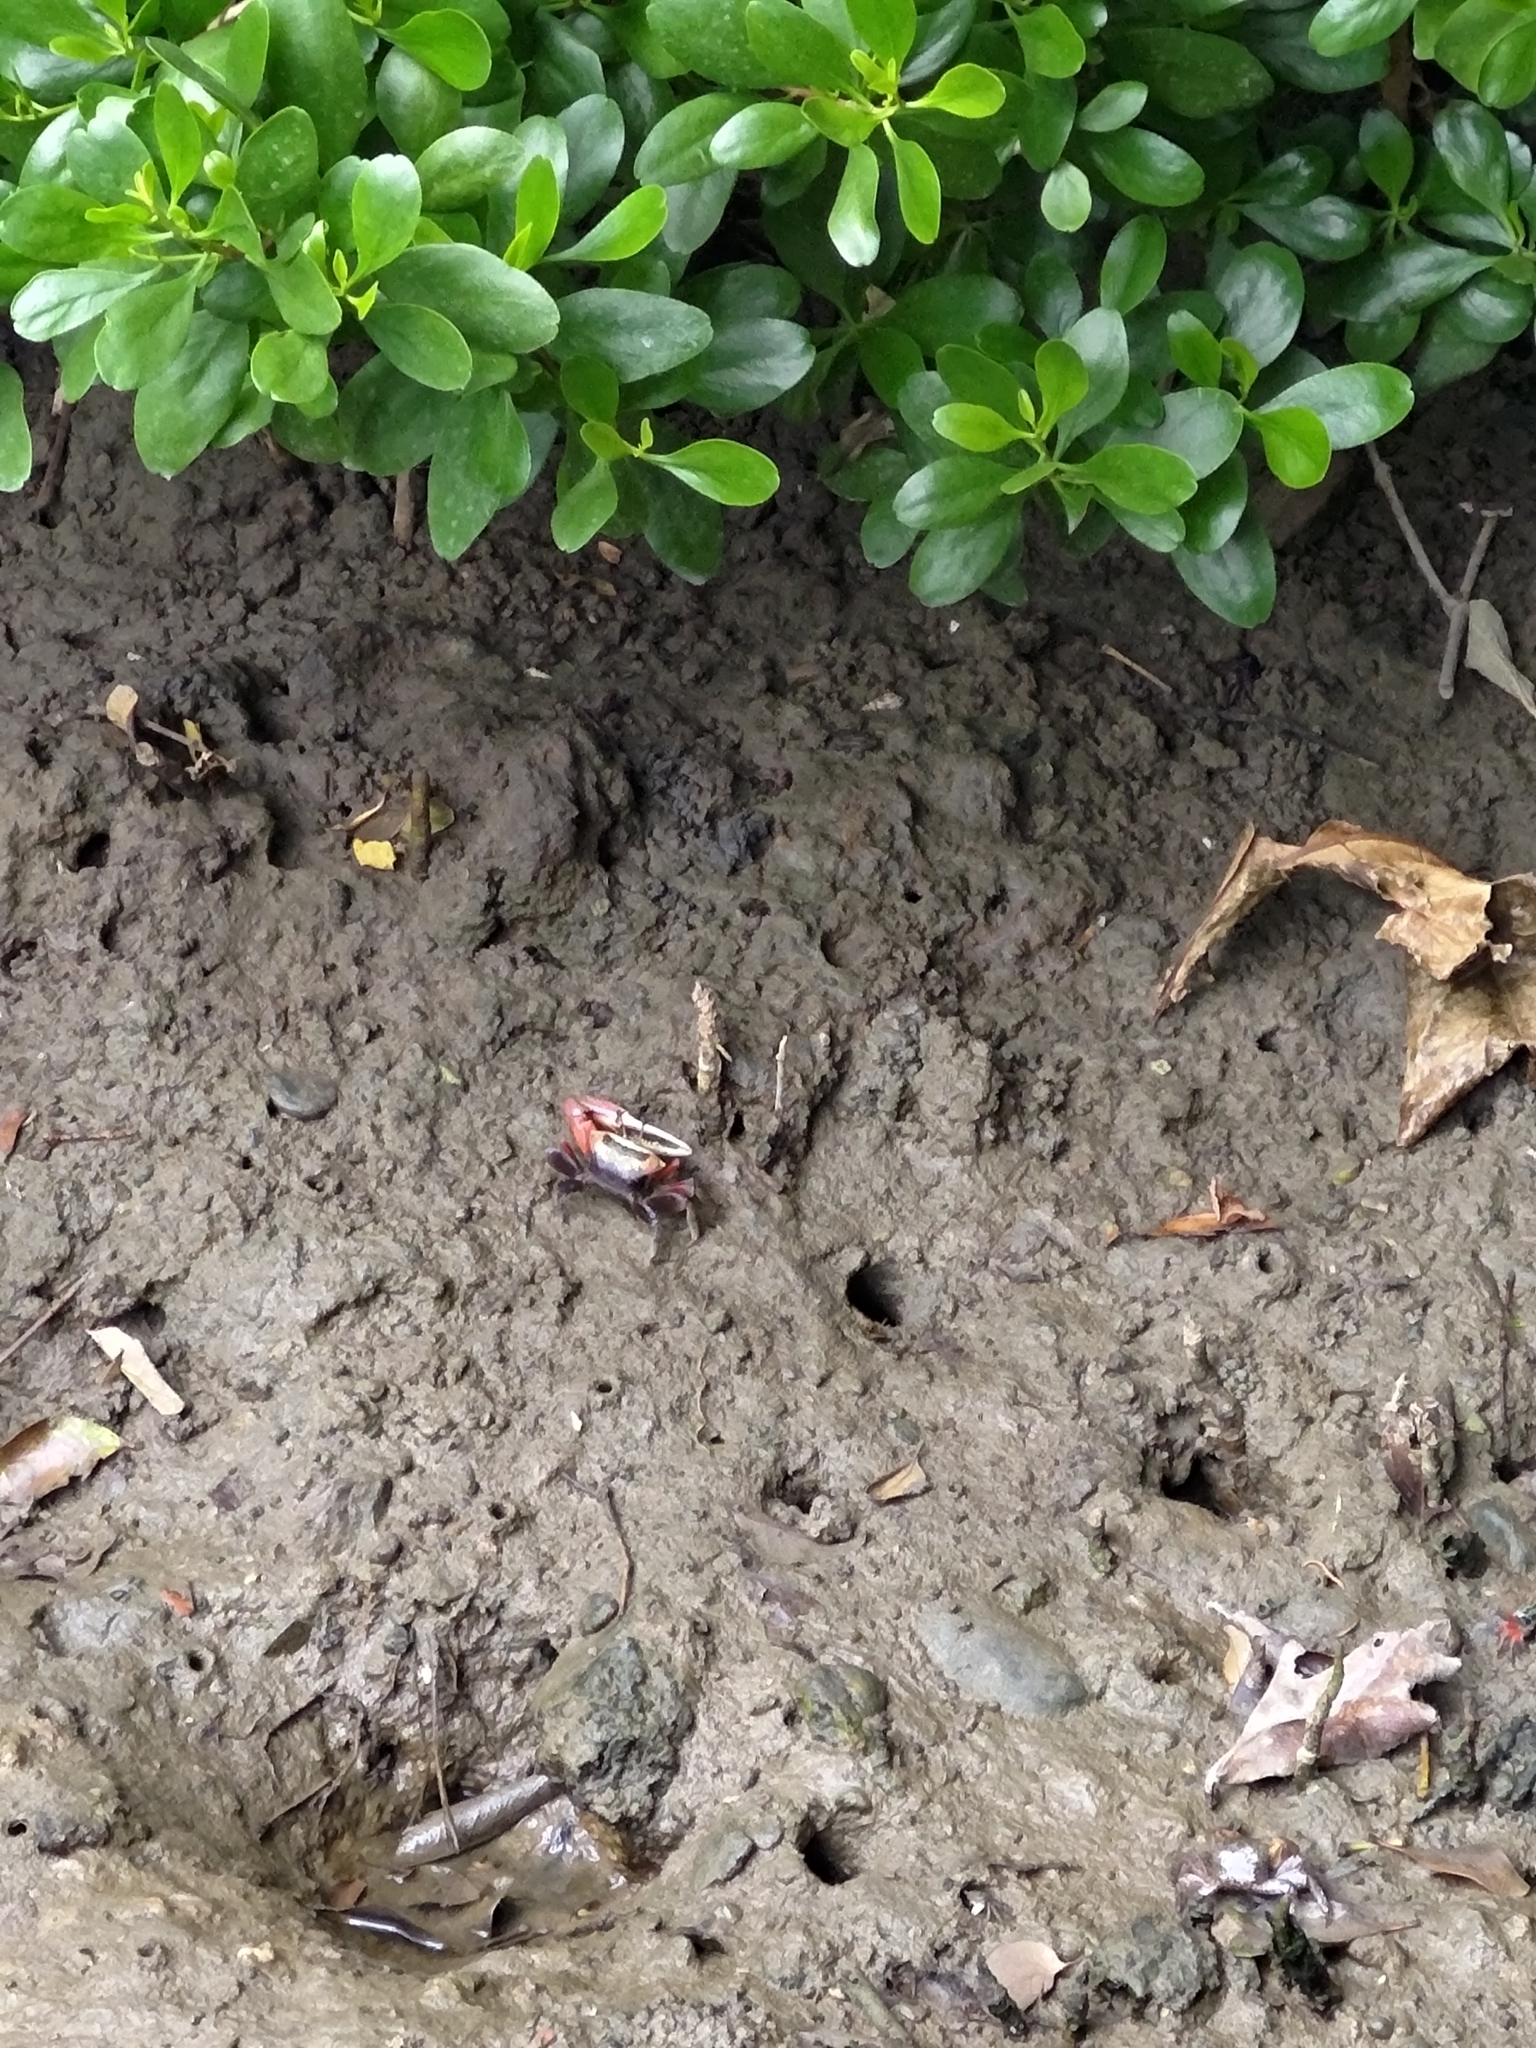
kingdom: Animalia
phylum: Arthropoda
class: Malacostraca
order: Decapoda
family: Ocypodidae
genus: Tubuca
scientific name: Tubuca arcuata
